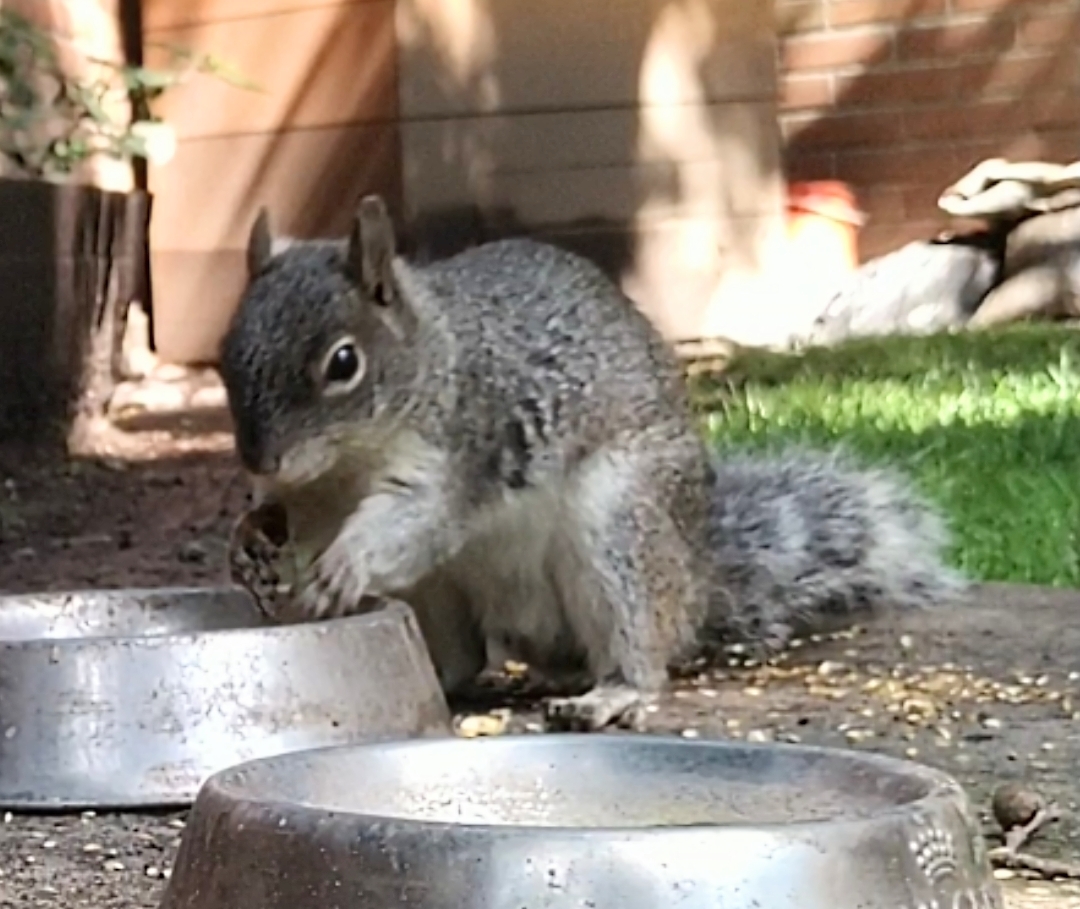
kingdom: Animalia
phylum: Chordata
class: Mammalia
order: Rodentia
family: Sciuridae
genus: Sciurus
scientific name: Sciurus aureogaster
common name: Red-bellied squirrel
